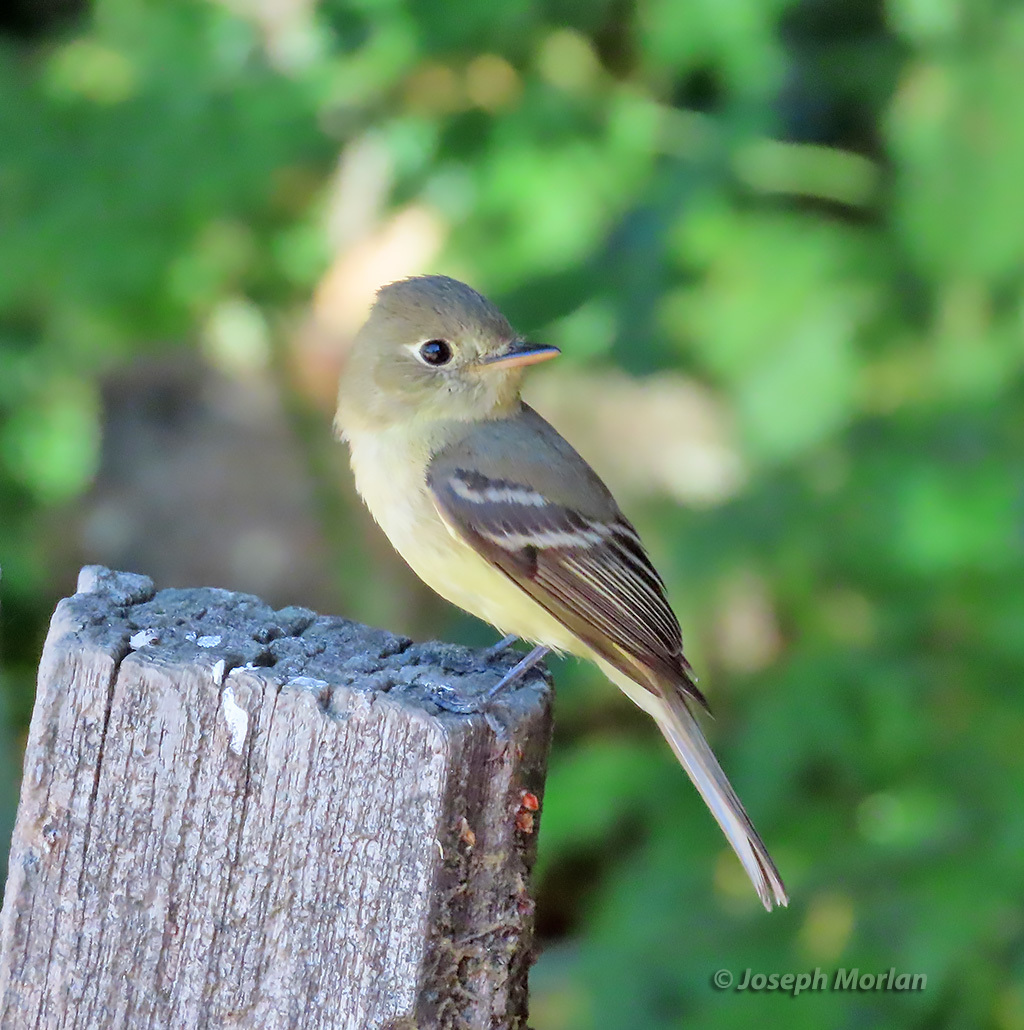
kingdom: Animalia
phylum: Chordata
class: Aves
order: Passeriformes
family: Tyrannidae
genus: Empidonax
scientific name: Empidonax difficilis
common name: Pacific-slope flycatcher
